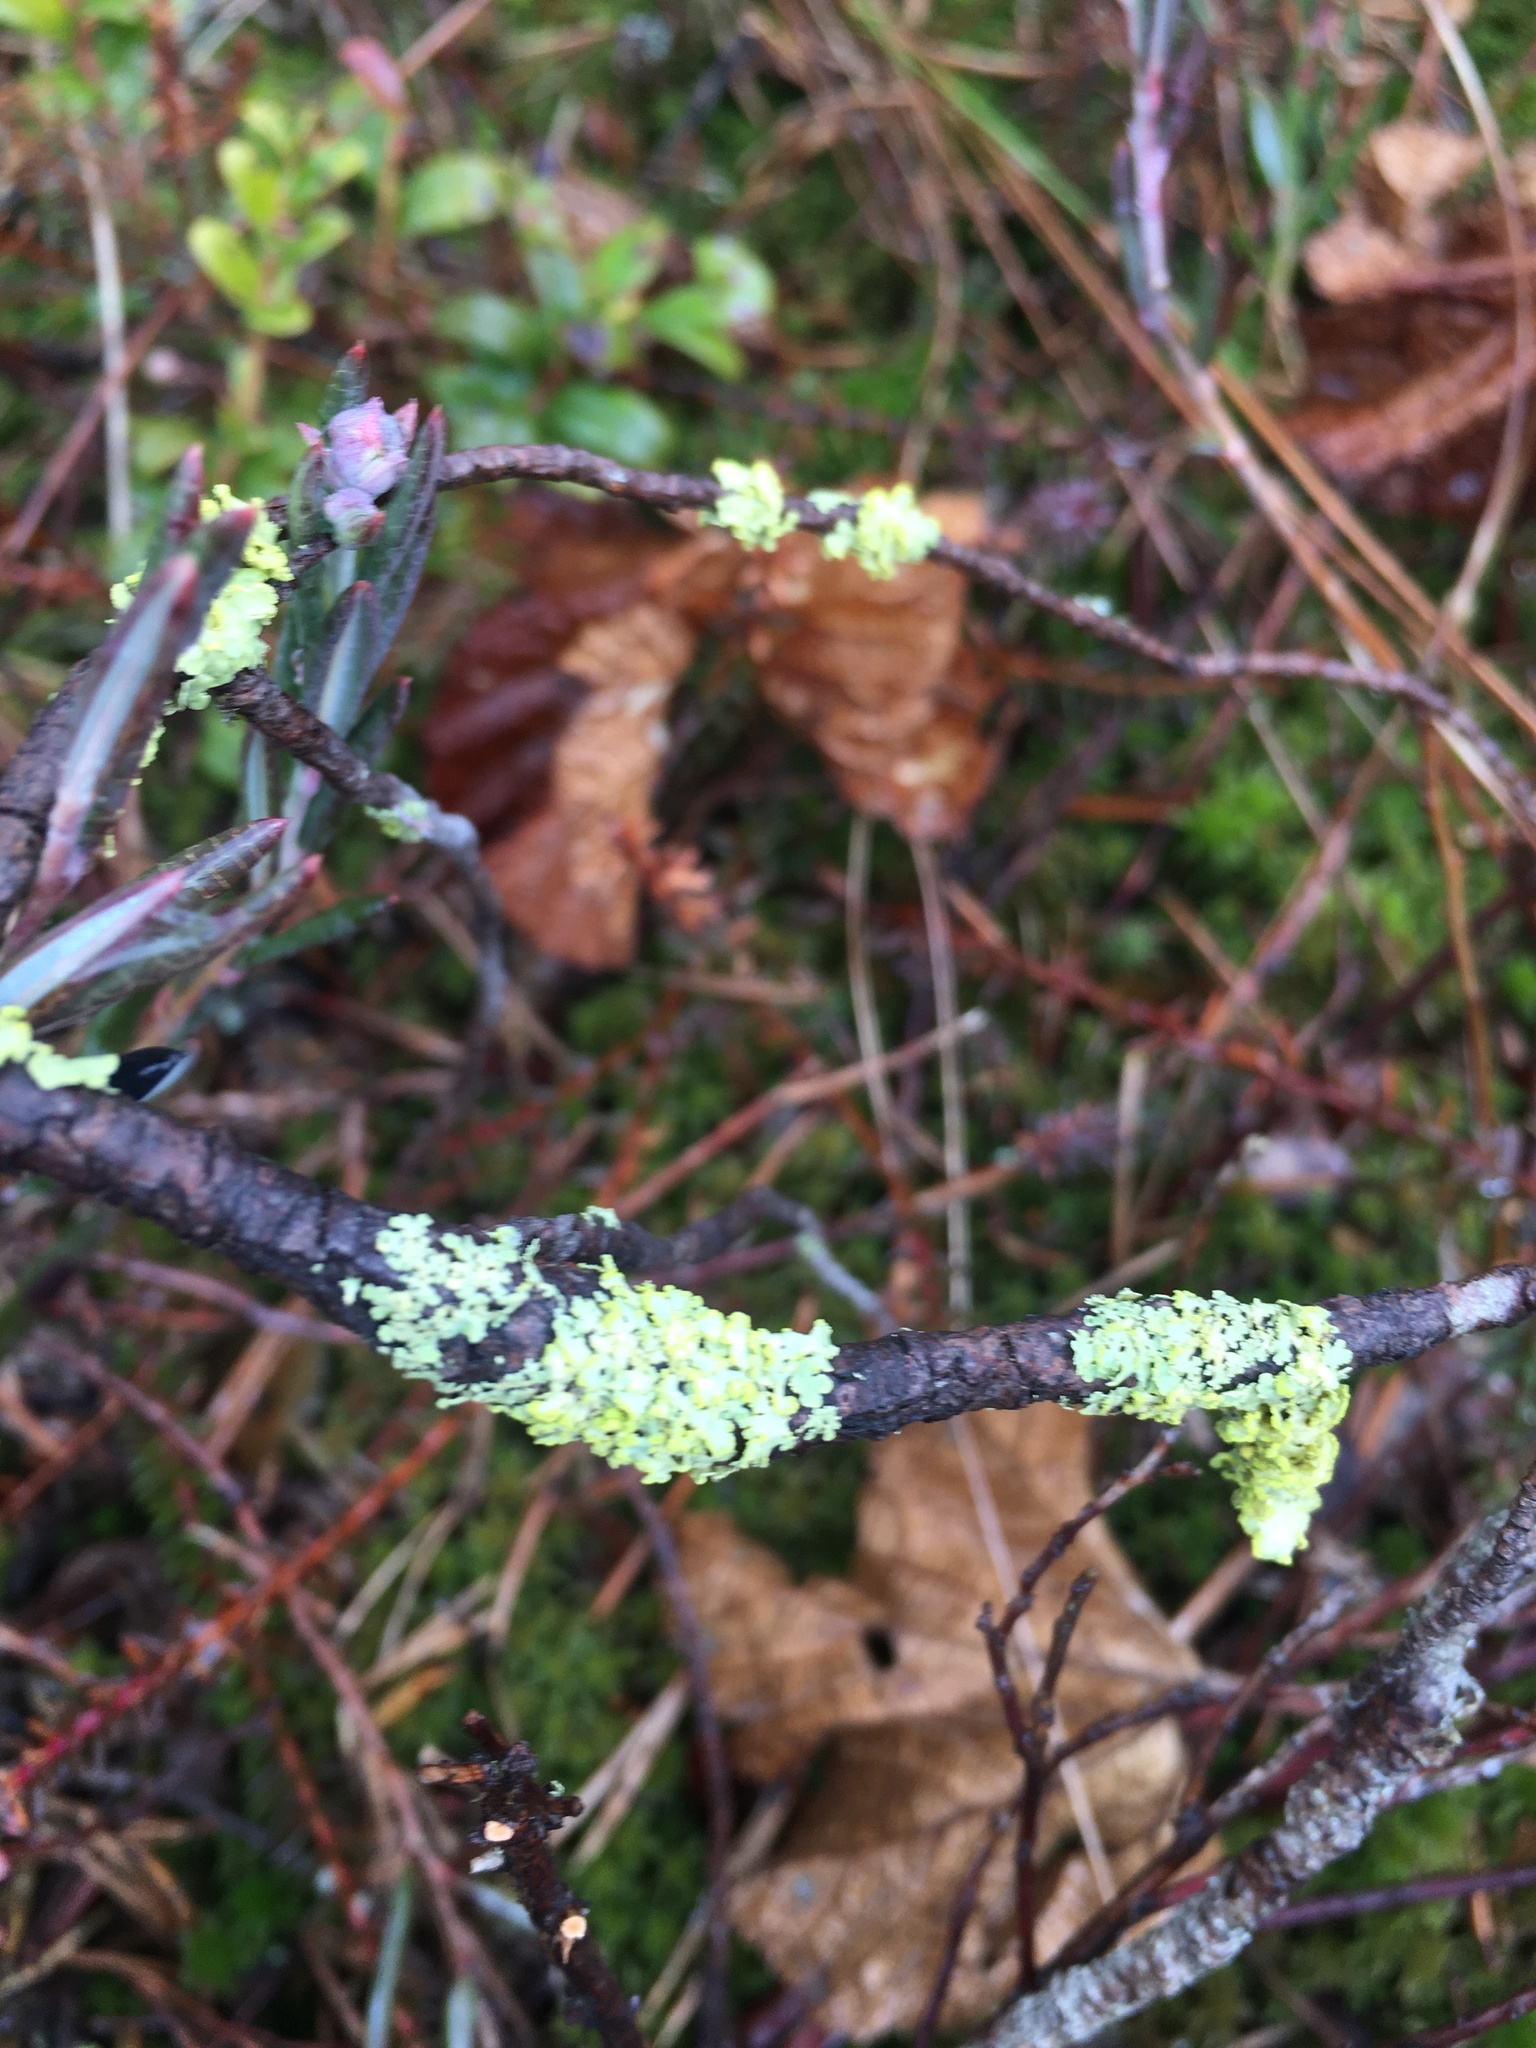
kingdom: Fungi
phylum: Ascomycota
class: Lecanoromycetes
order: Lecanorales
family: Parmeliaceae
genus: Vulpicida
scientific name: Vulpicida pinastri
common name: Powdered sunshine lichen
